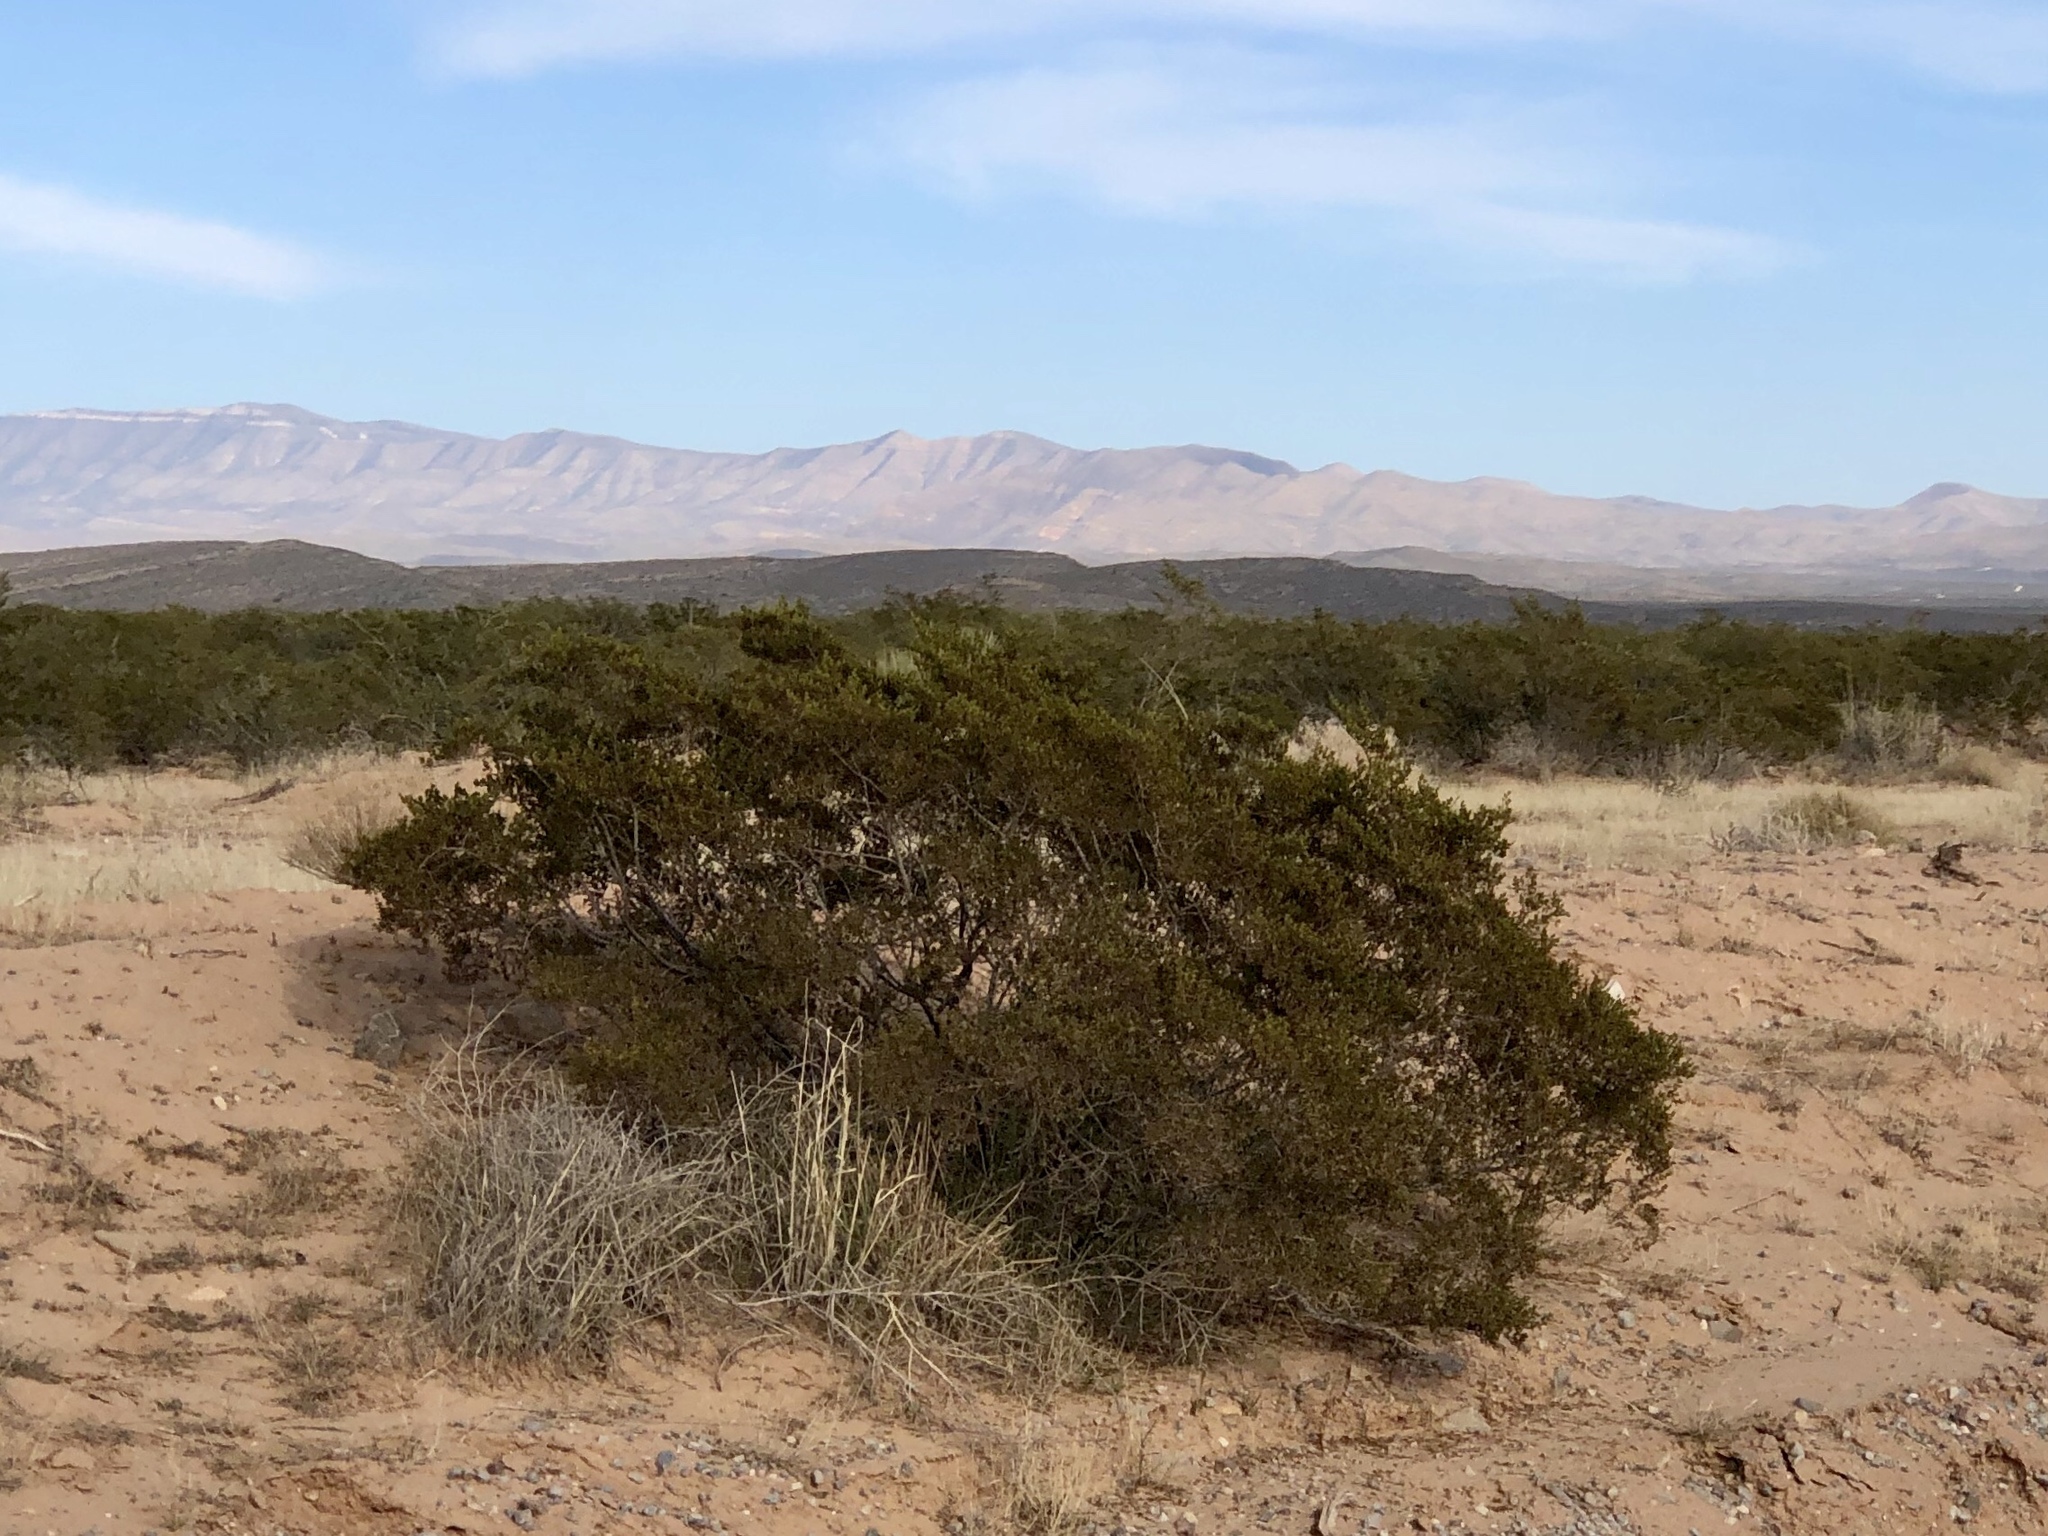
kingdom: Plantae
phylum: Tracheophyta
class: Magnoliopsida
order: Zygophyllales
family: Zygophyllaceae
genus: Larrea
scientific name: Larrea tridentata
